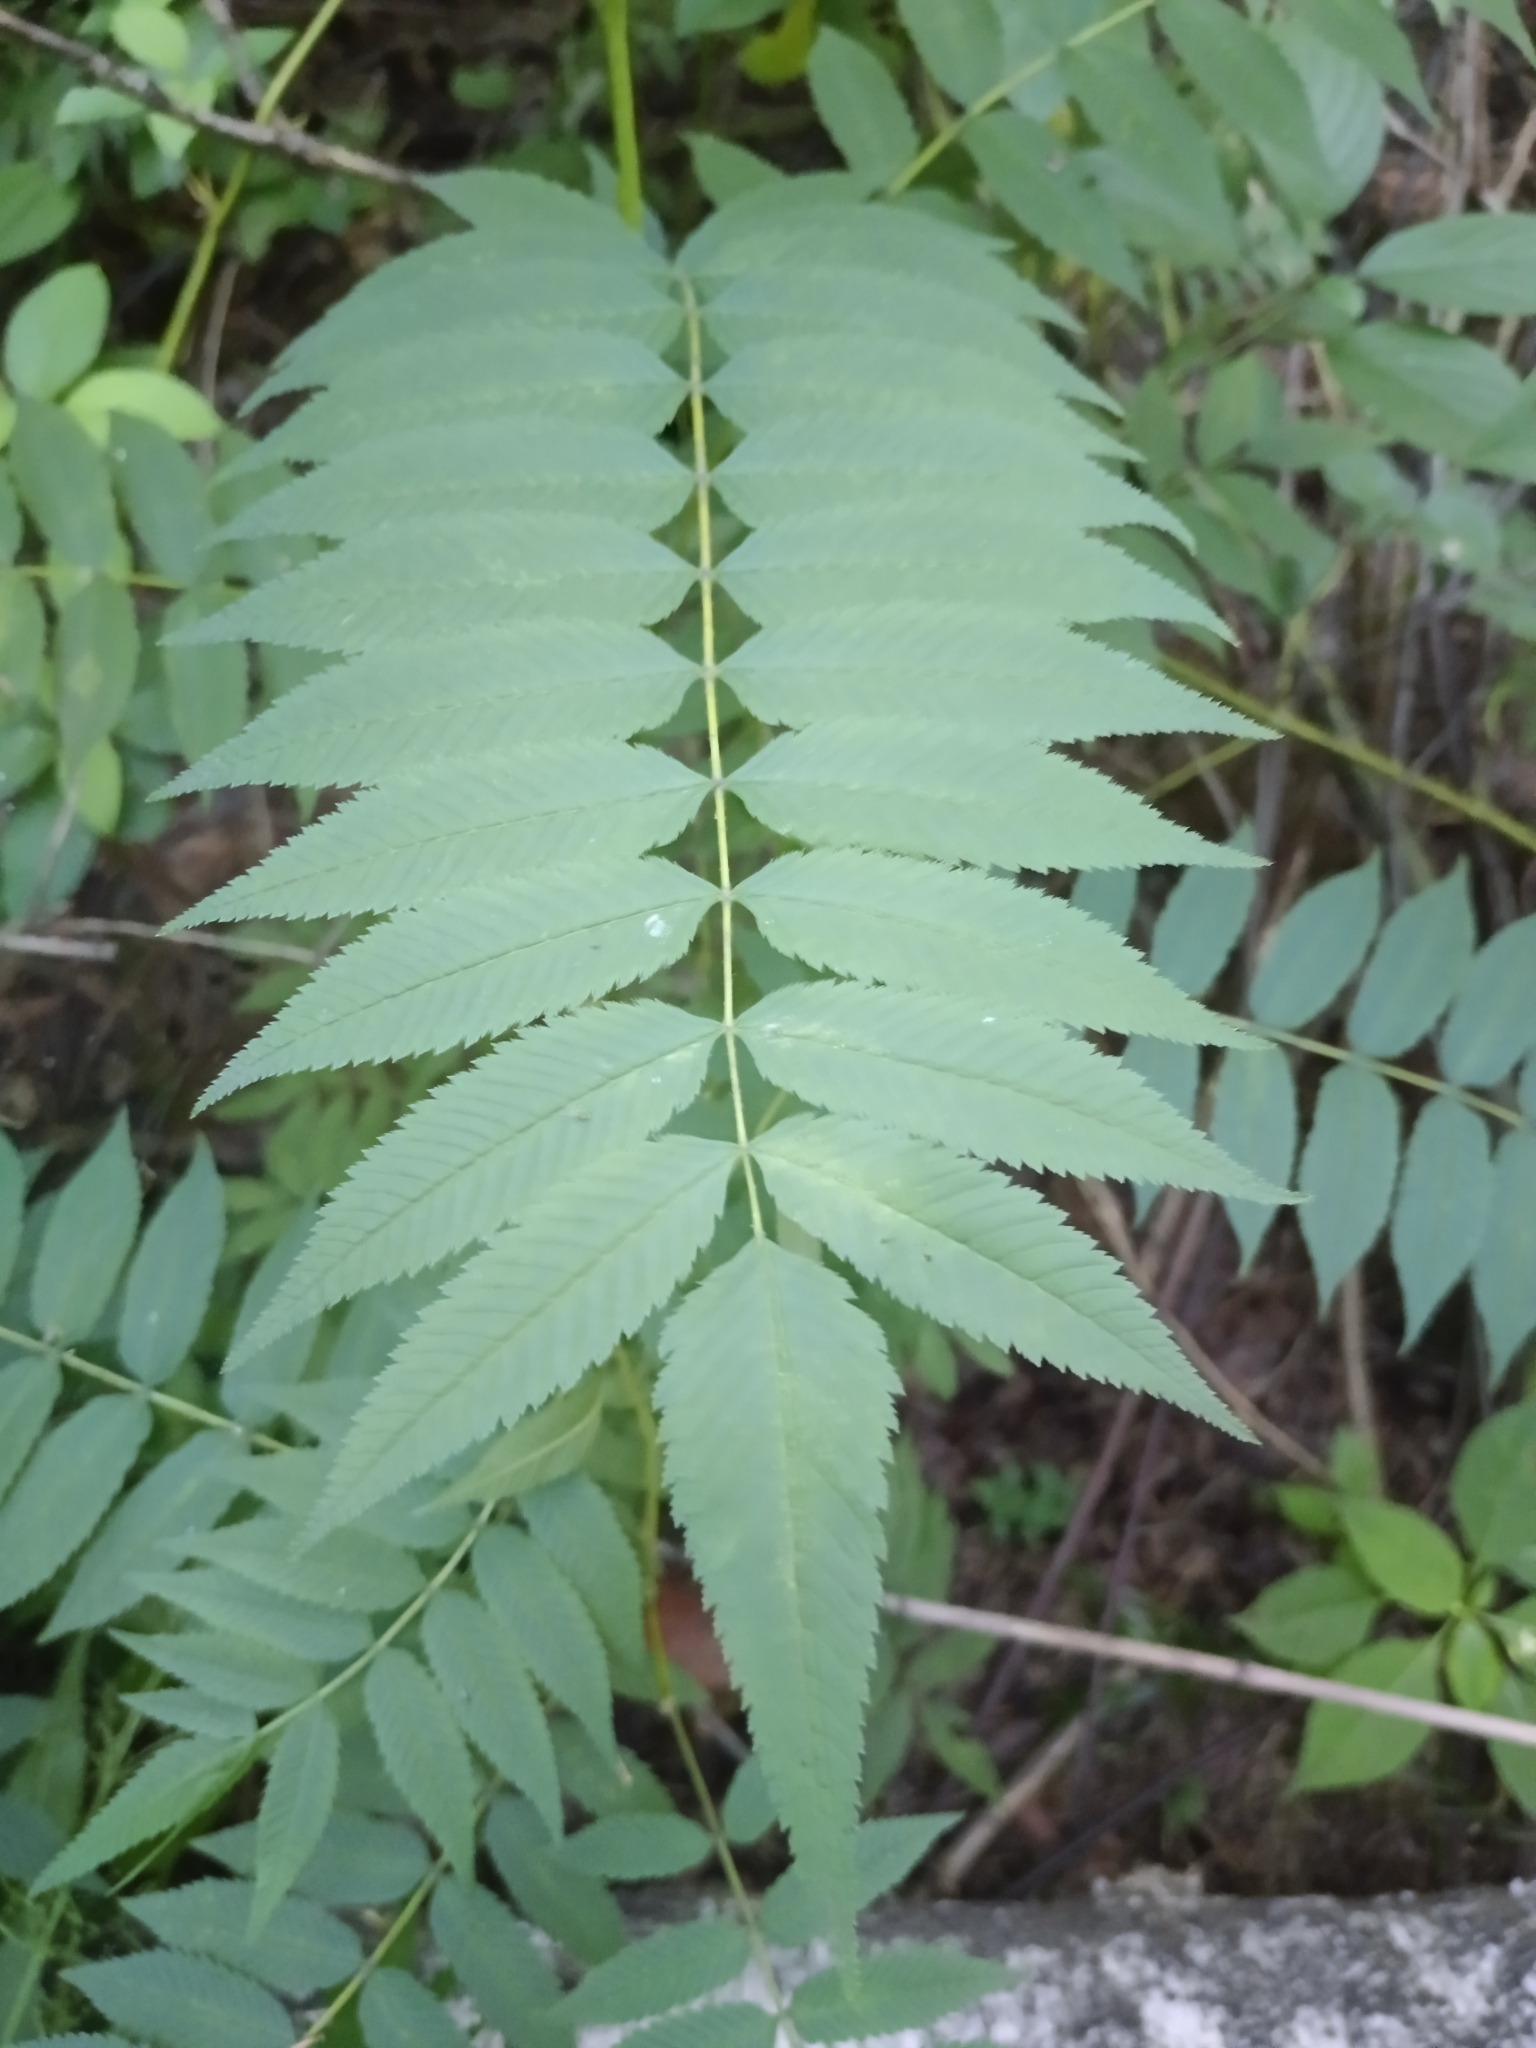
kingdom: Plantae
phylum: Tracheophyta
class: Magnoliopsida
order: Rosales
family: Rosaceae
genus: Sorbaria
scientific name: Sorbaria sorbifolia
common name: False spiraea
